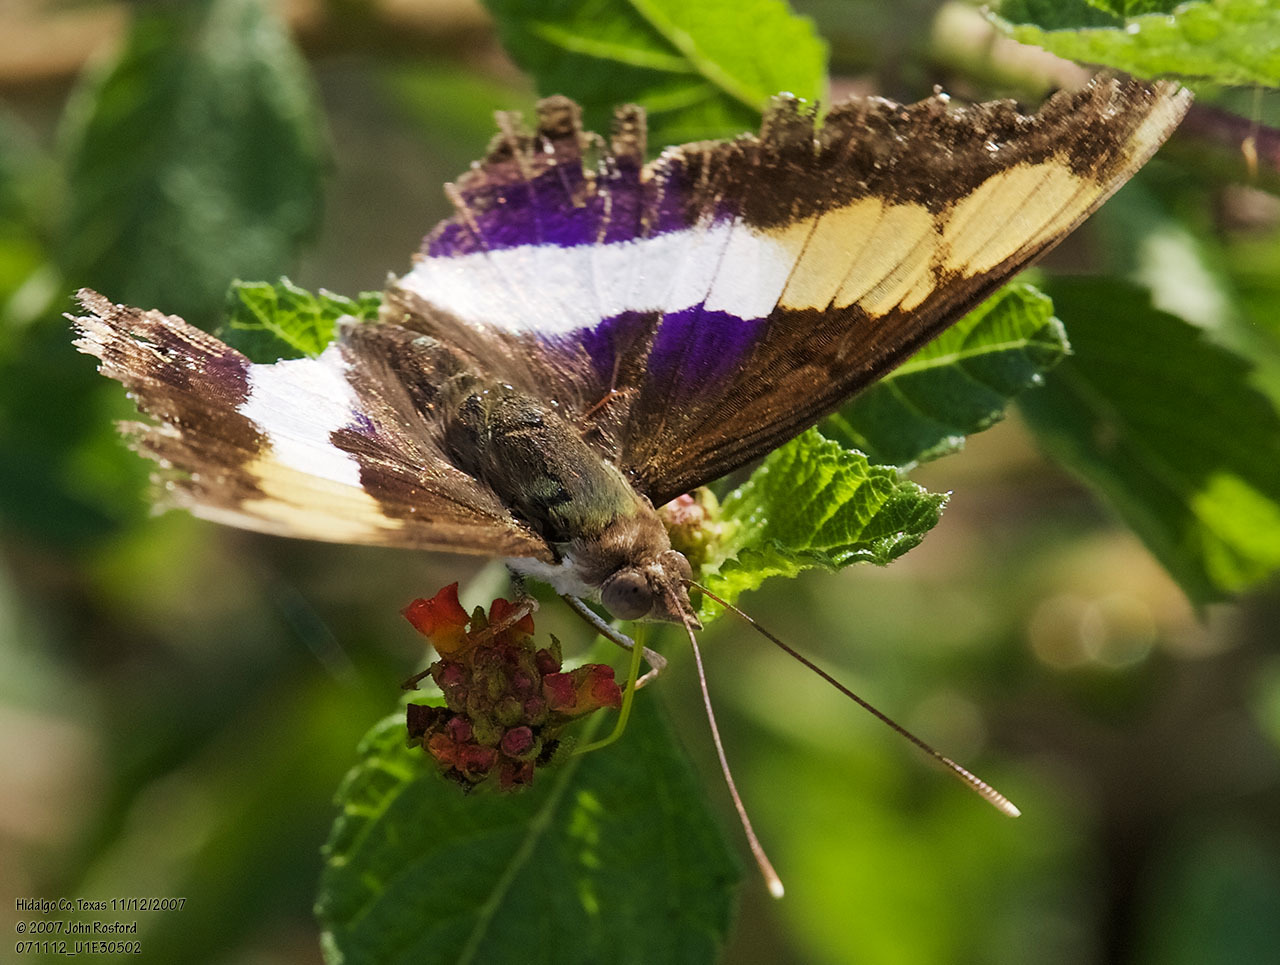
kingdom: Animalia
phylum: Arthropoda
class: Insecta
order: Lepidoptera
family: Nymphalidae
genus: Doxocopa
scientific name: Doxocopa laure
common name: Silver emperor
